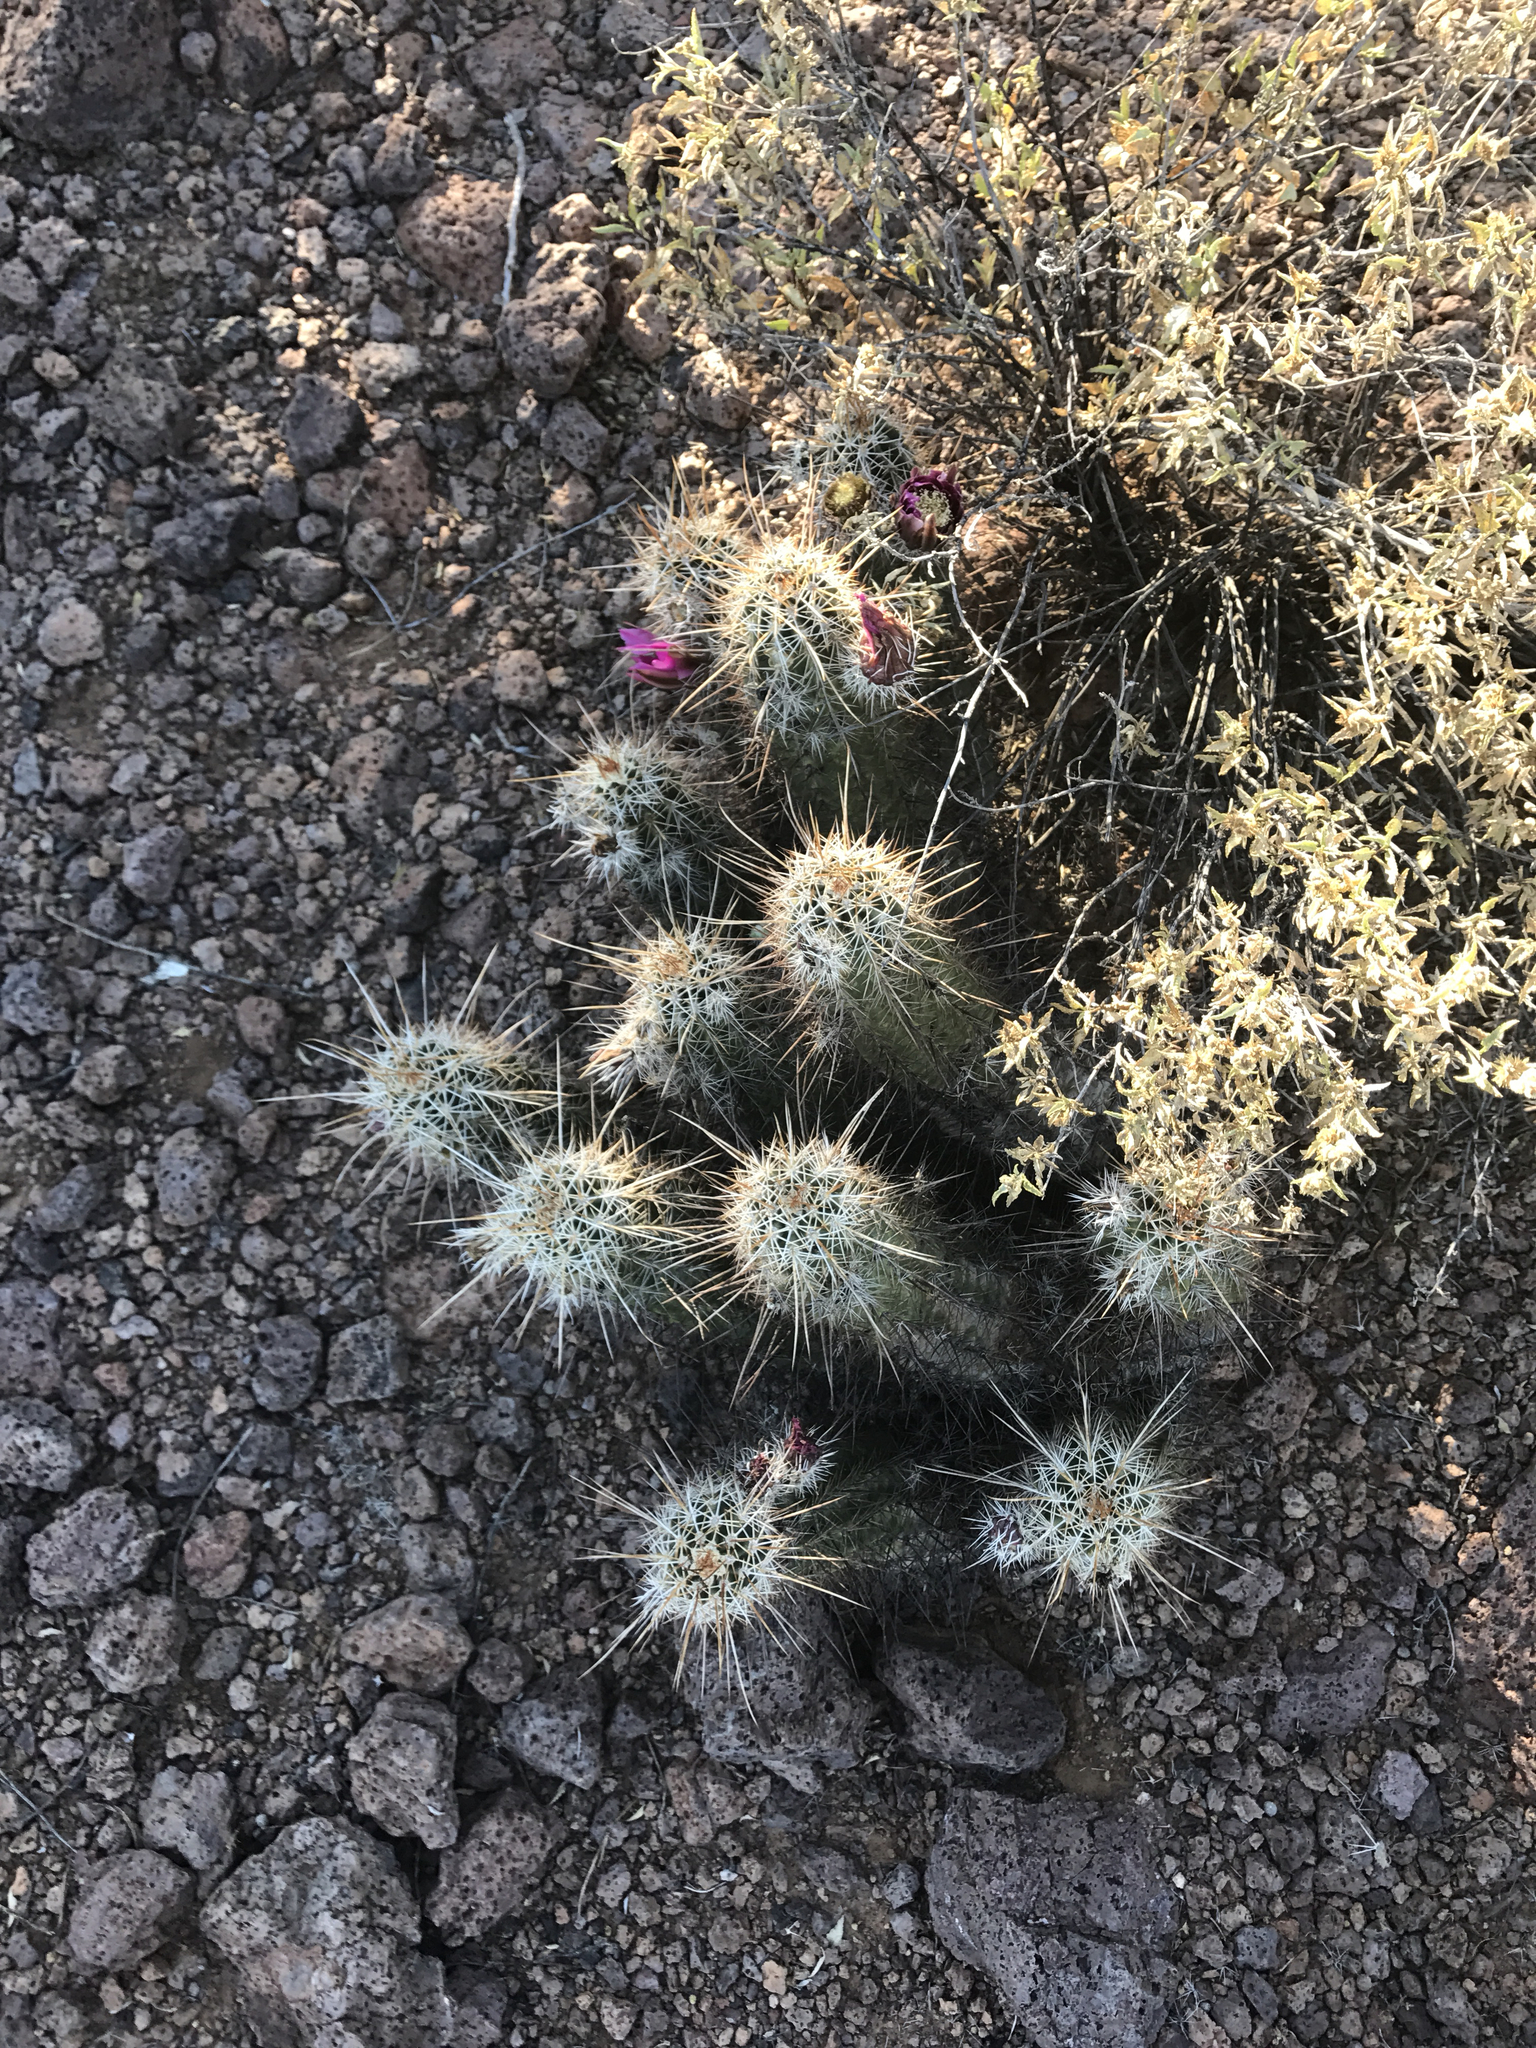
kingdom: Plantae
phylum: Tracheophyta
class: Magnoliopsida
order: Caryophyllales
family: Cactaceae
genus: Echinocereus
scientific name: Echinocereus fasciculatus
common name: Bundle hedgehog
